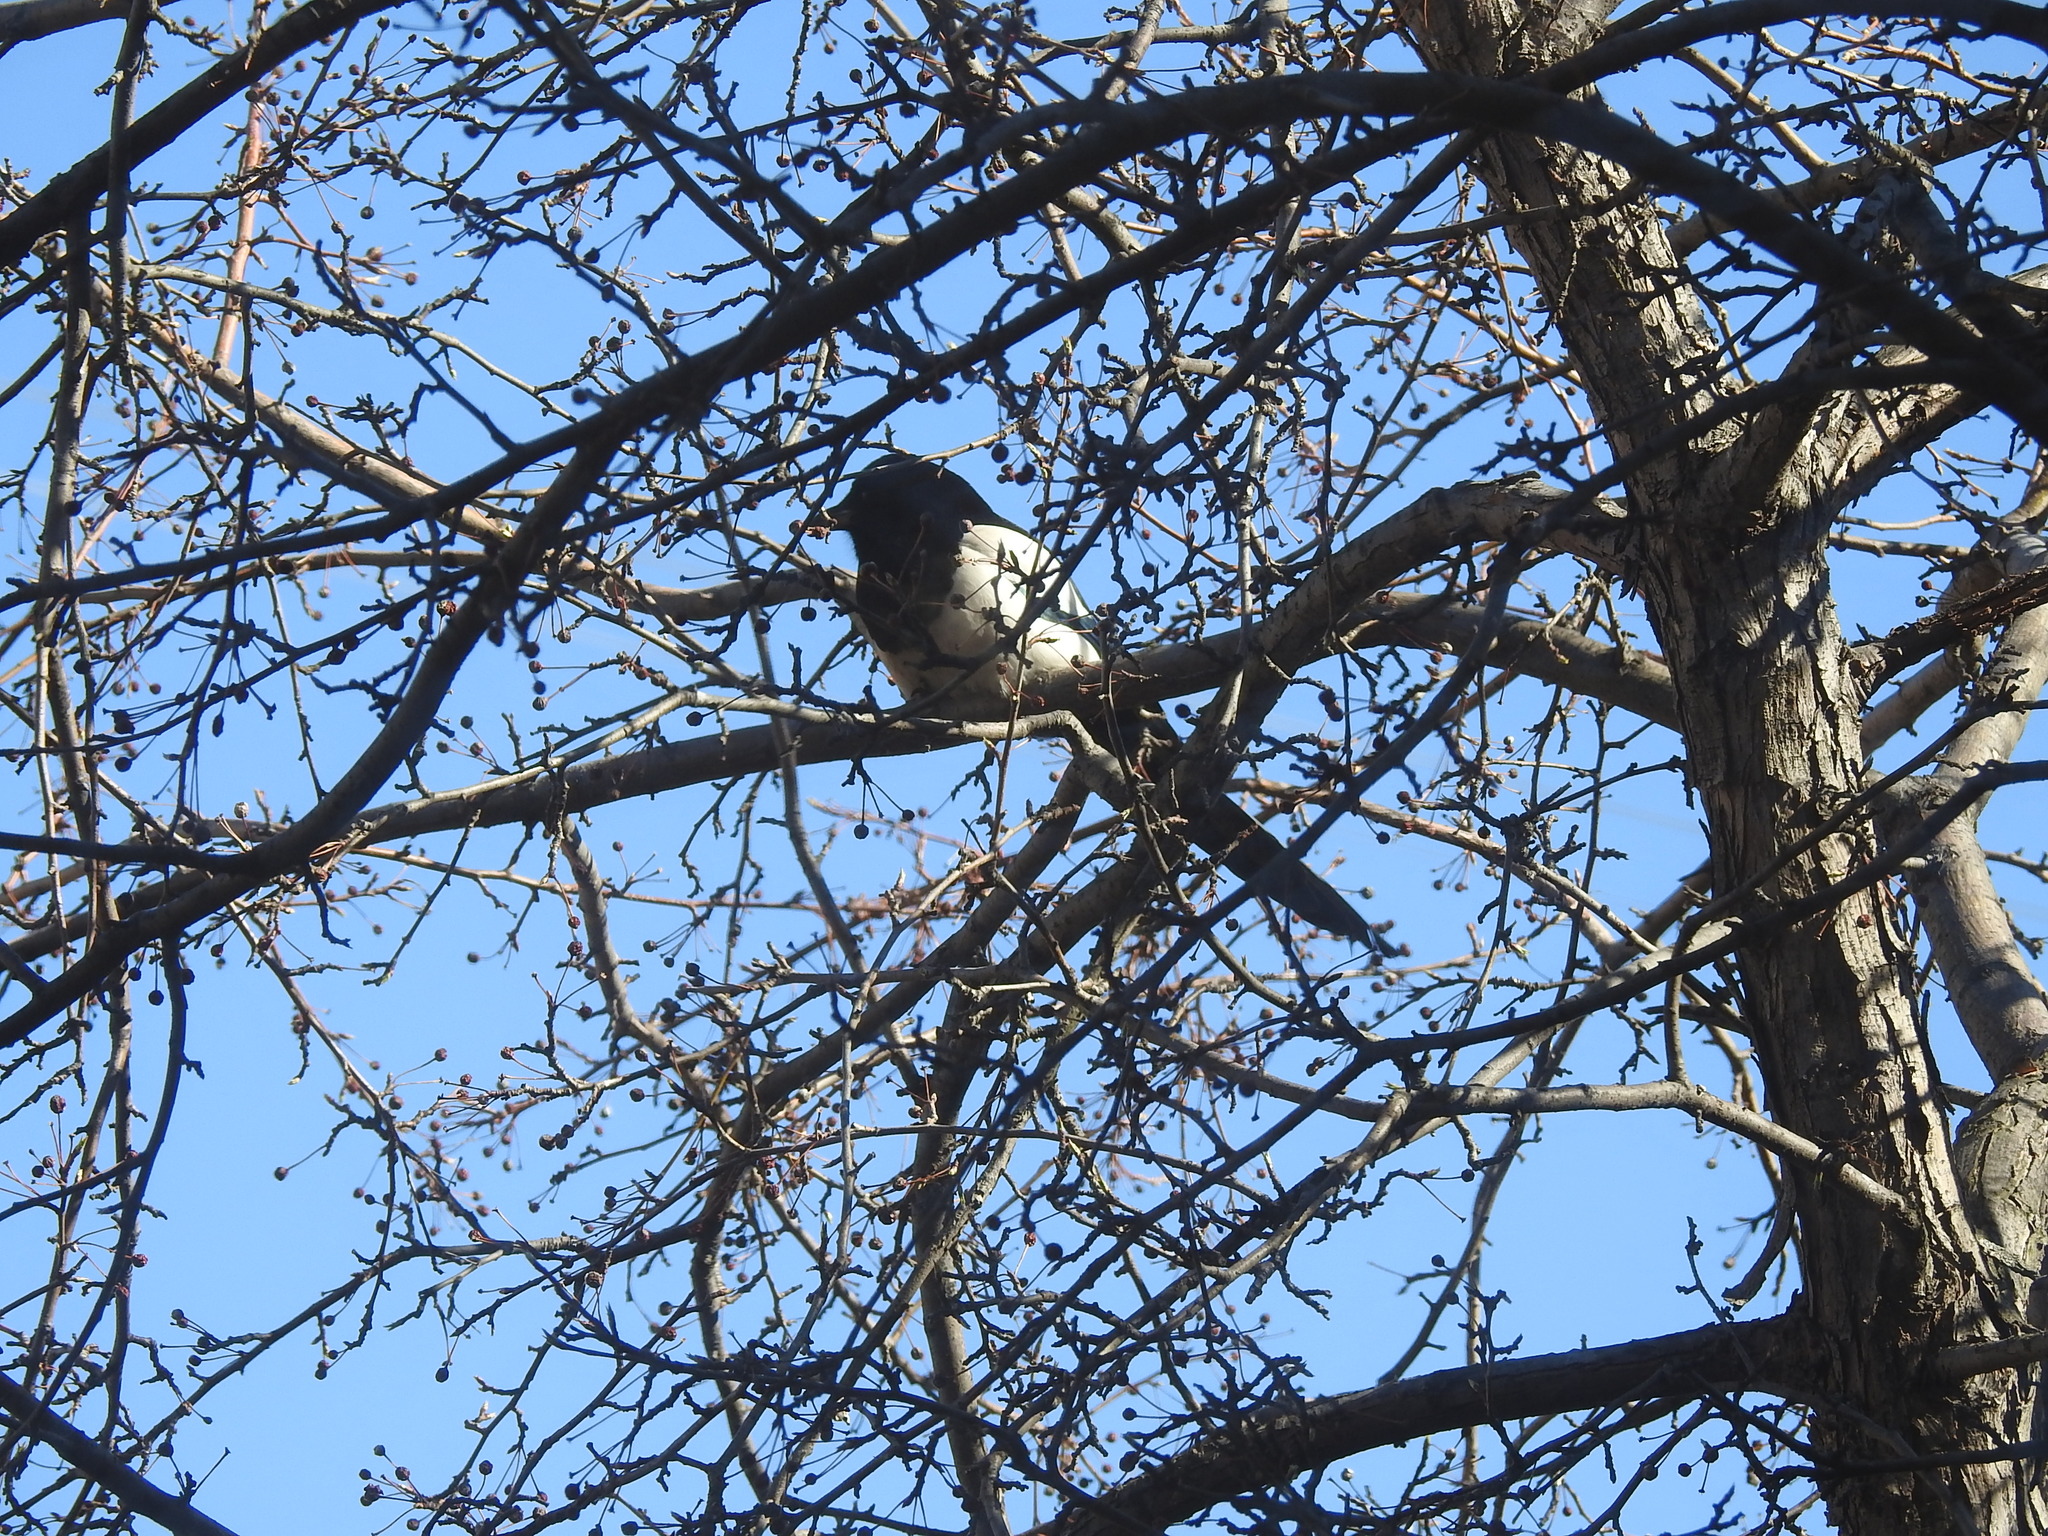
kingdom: Animalia
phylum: Chordata
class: Aves
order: Passeriformes
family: Corvidae
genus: Pica
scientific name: Pica pica
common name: Eurasian magpie
